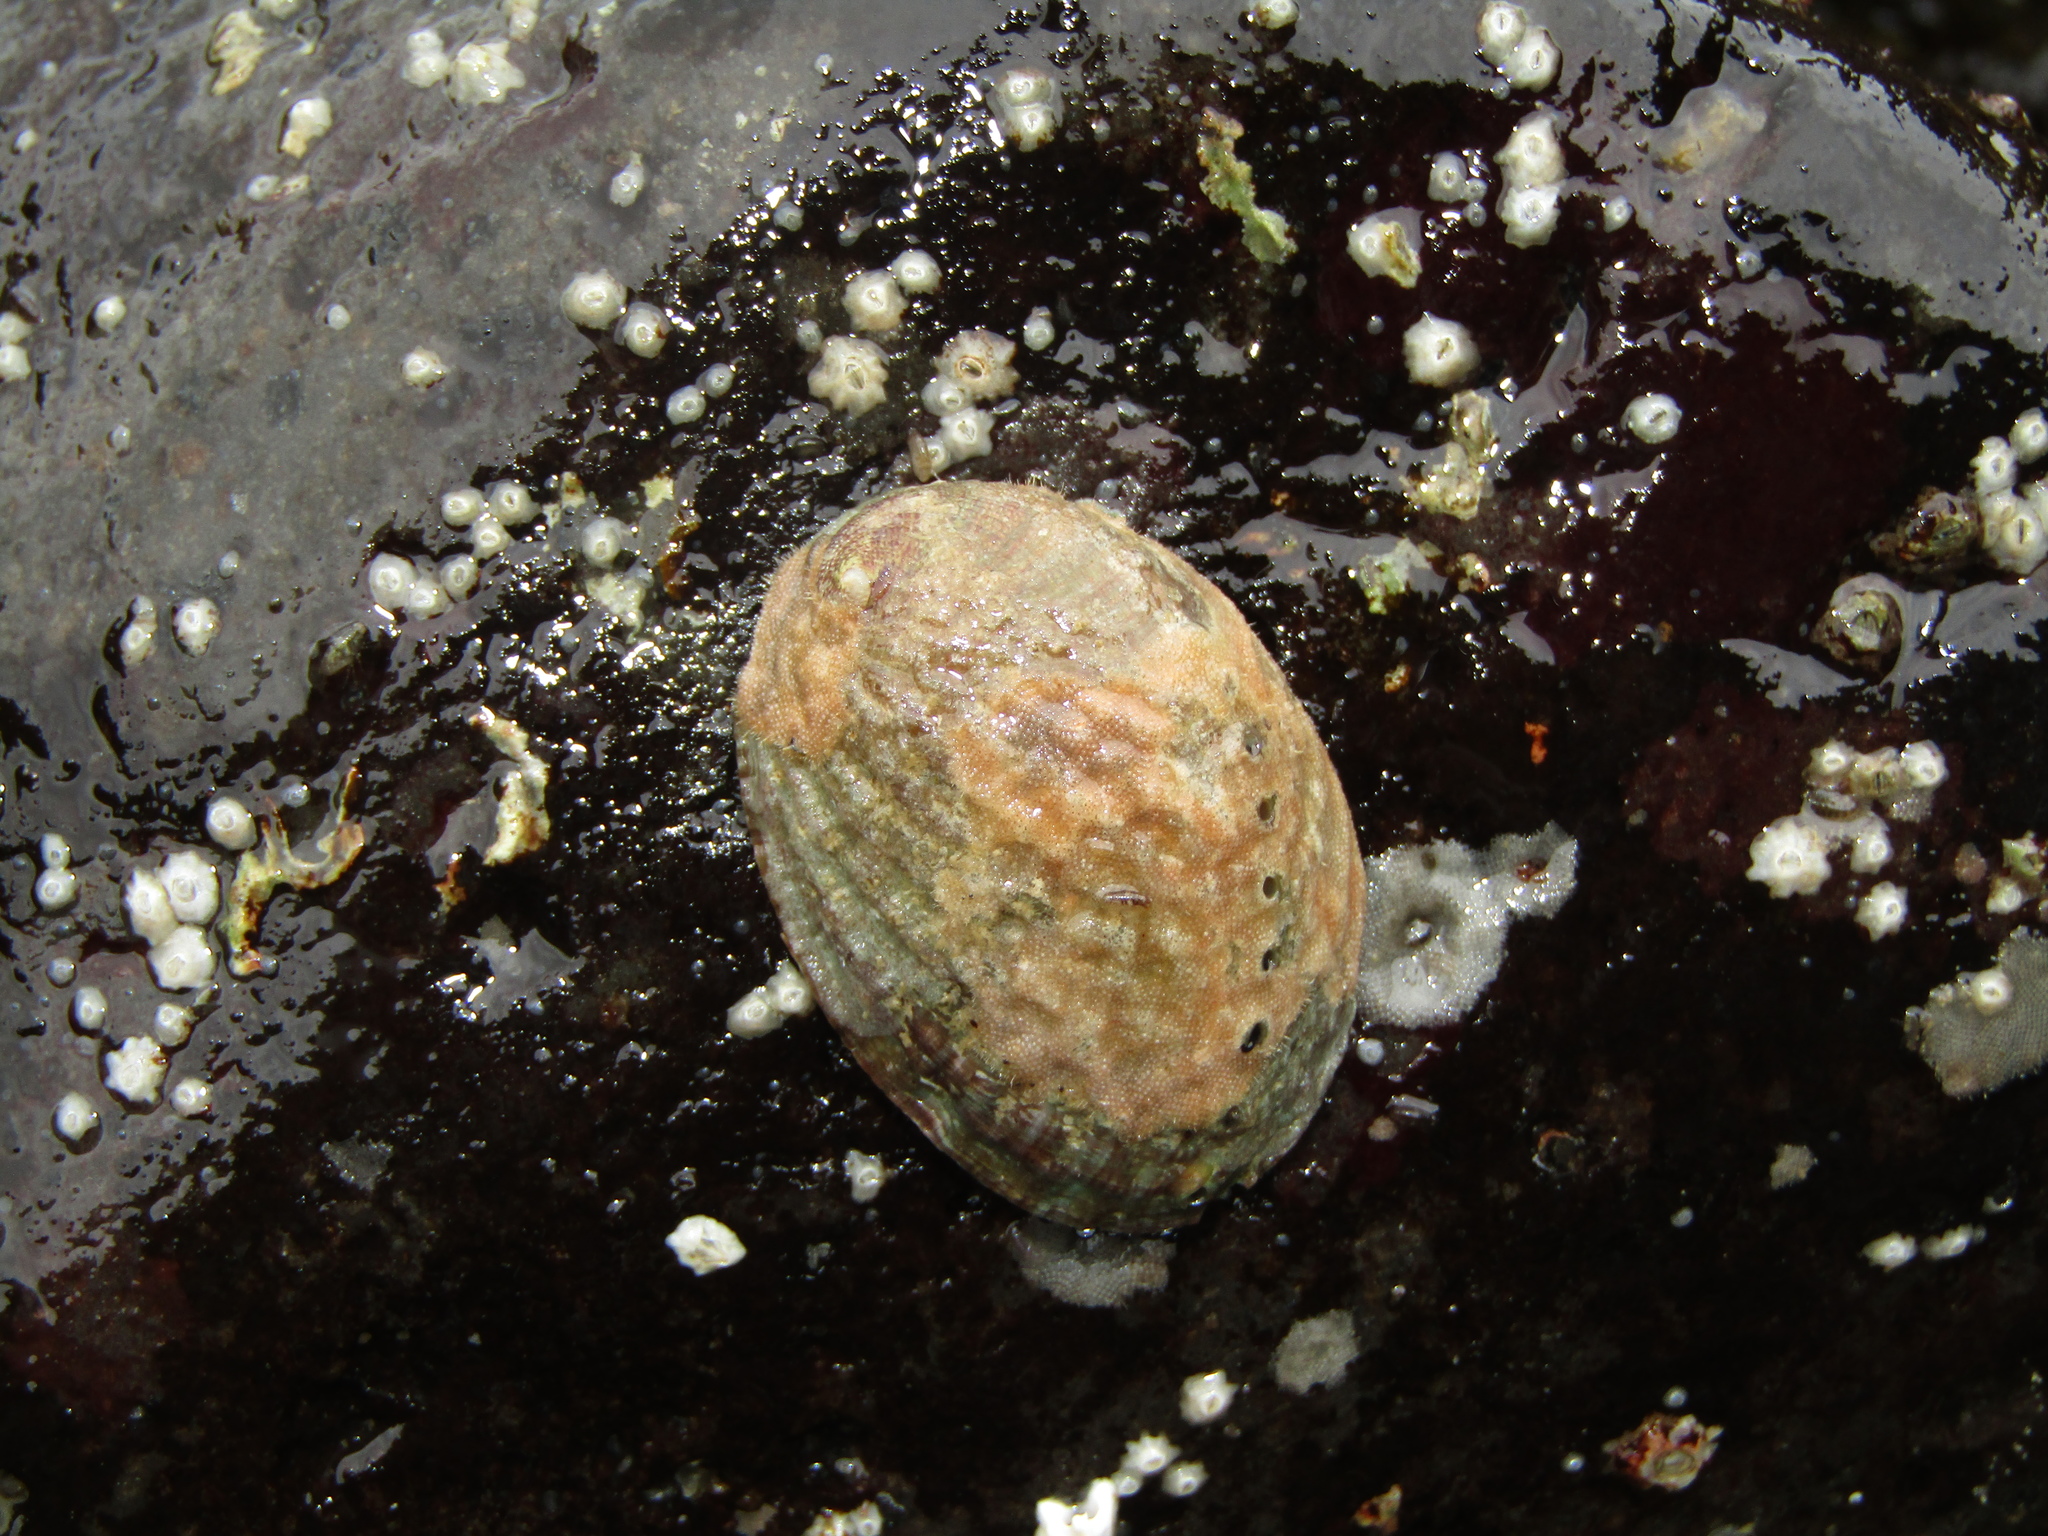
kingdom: Animalia
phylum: Mollusca
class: Gastropoda
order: Lepetellida
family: Haliotidae
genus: Haliotis
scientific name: Haliotis iris
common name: Abalone
